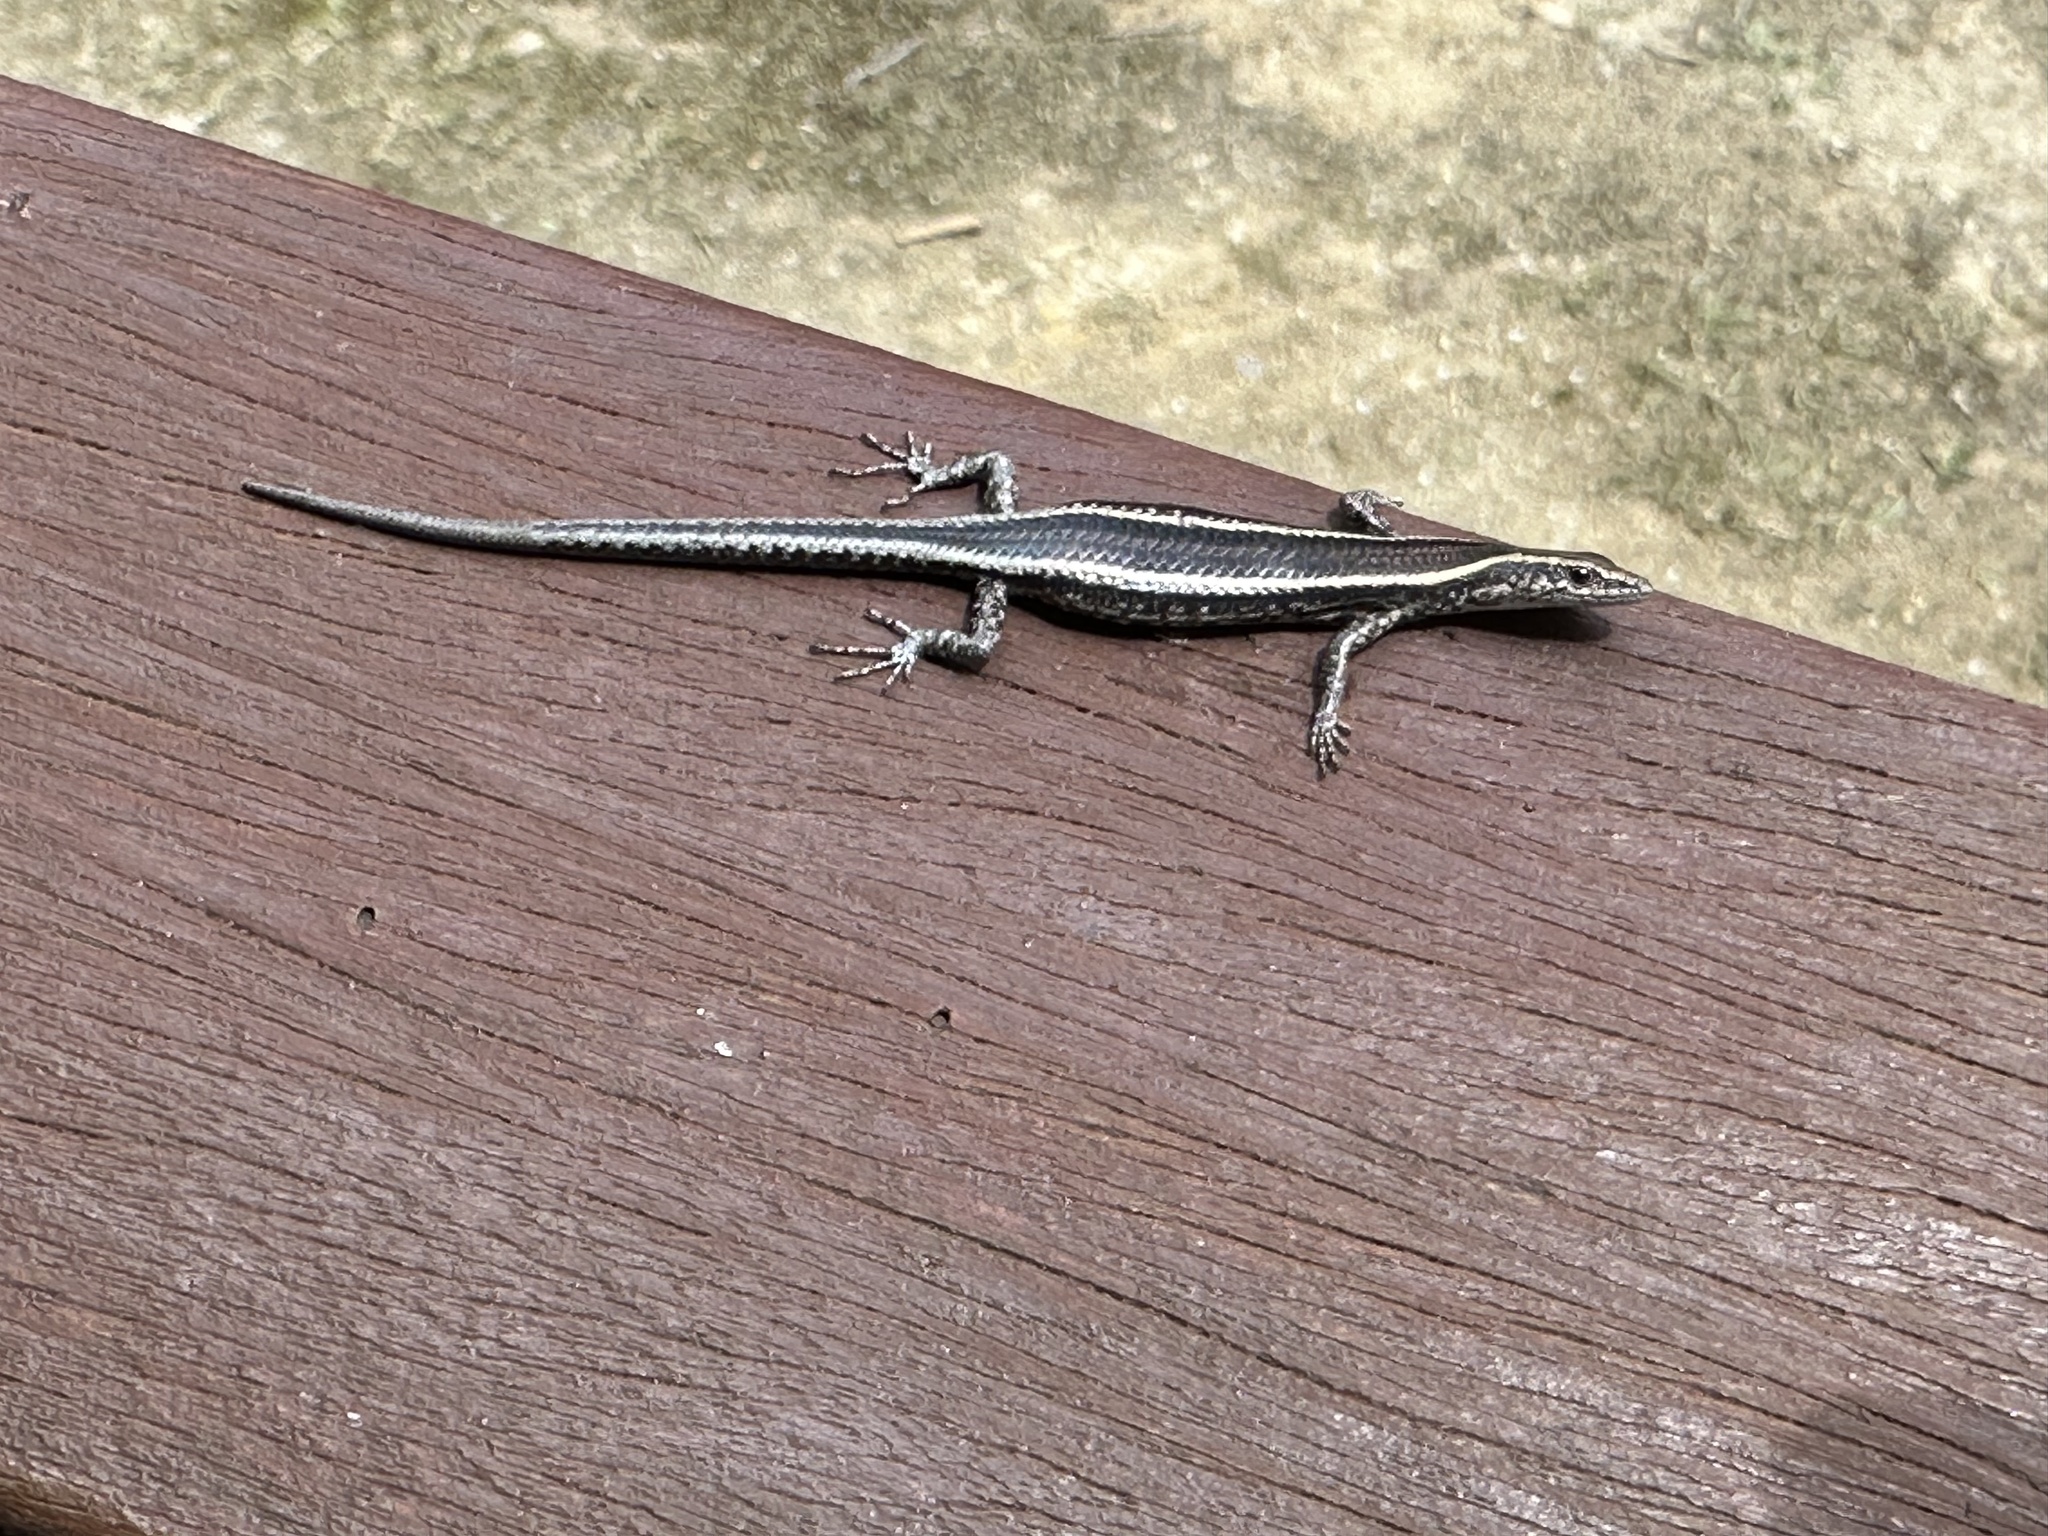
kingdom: Animalia
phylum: Chordata
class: Squamata
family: Scincidae
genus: Cryptoblepharus
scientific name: Cryptoblepharus pulcher
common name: Elegant snake-eyed skink
